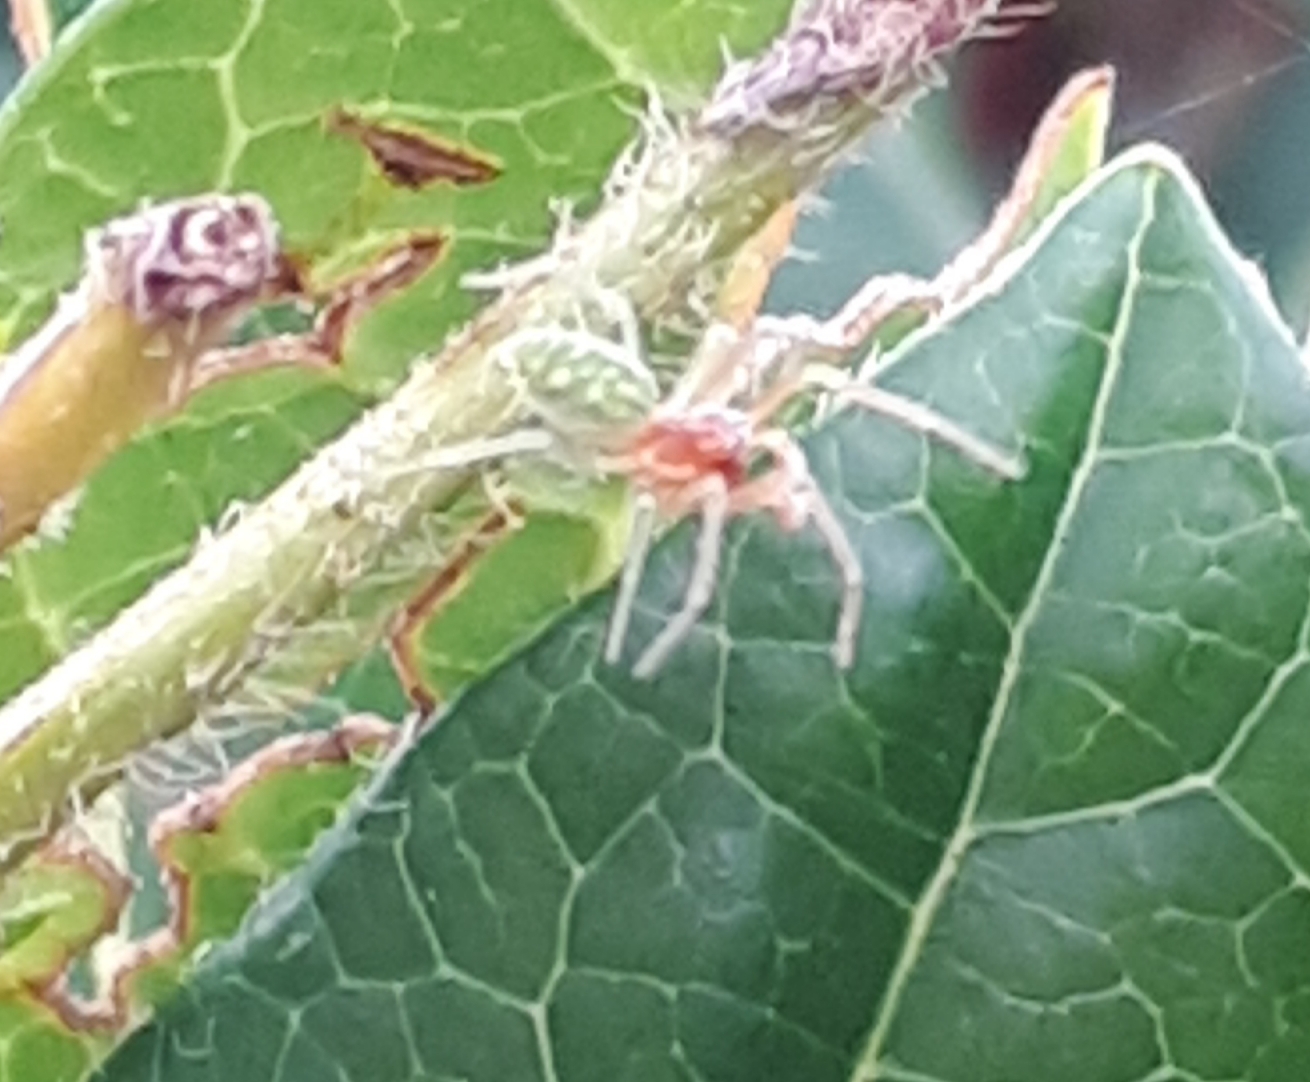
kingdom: Animalia
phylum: Arthropoda
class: Arachnida
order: Araneae
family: Dictynidae
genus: Nigma
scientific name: Nigma walckenaeri
